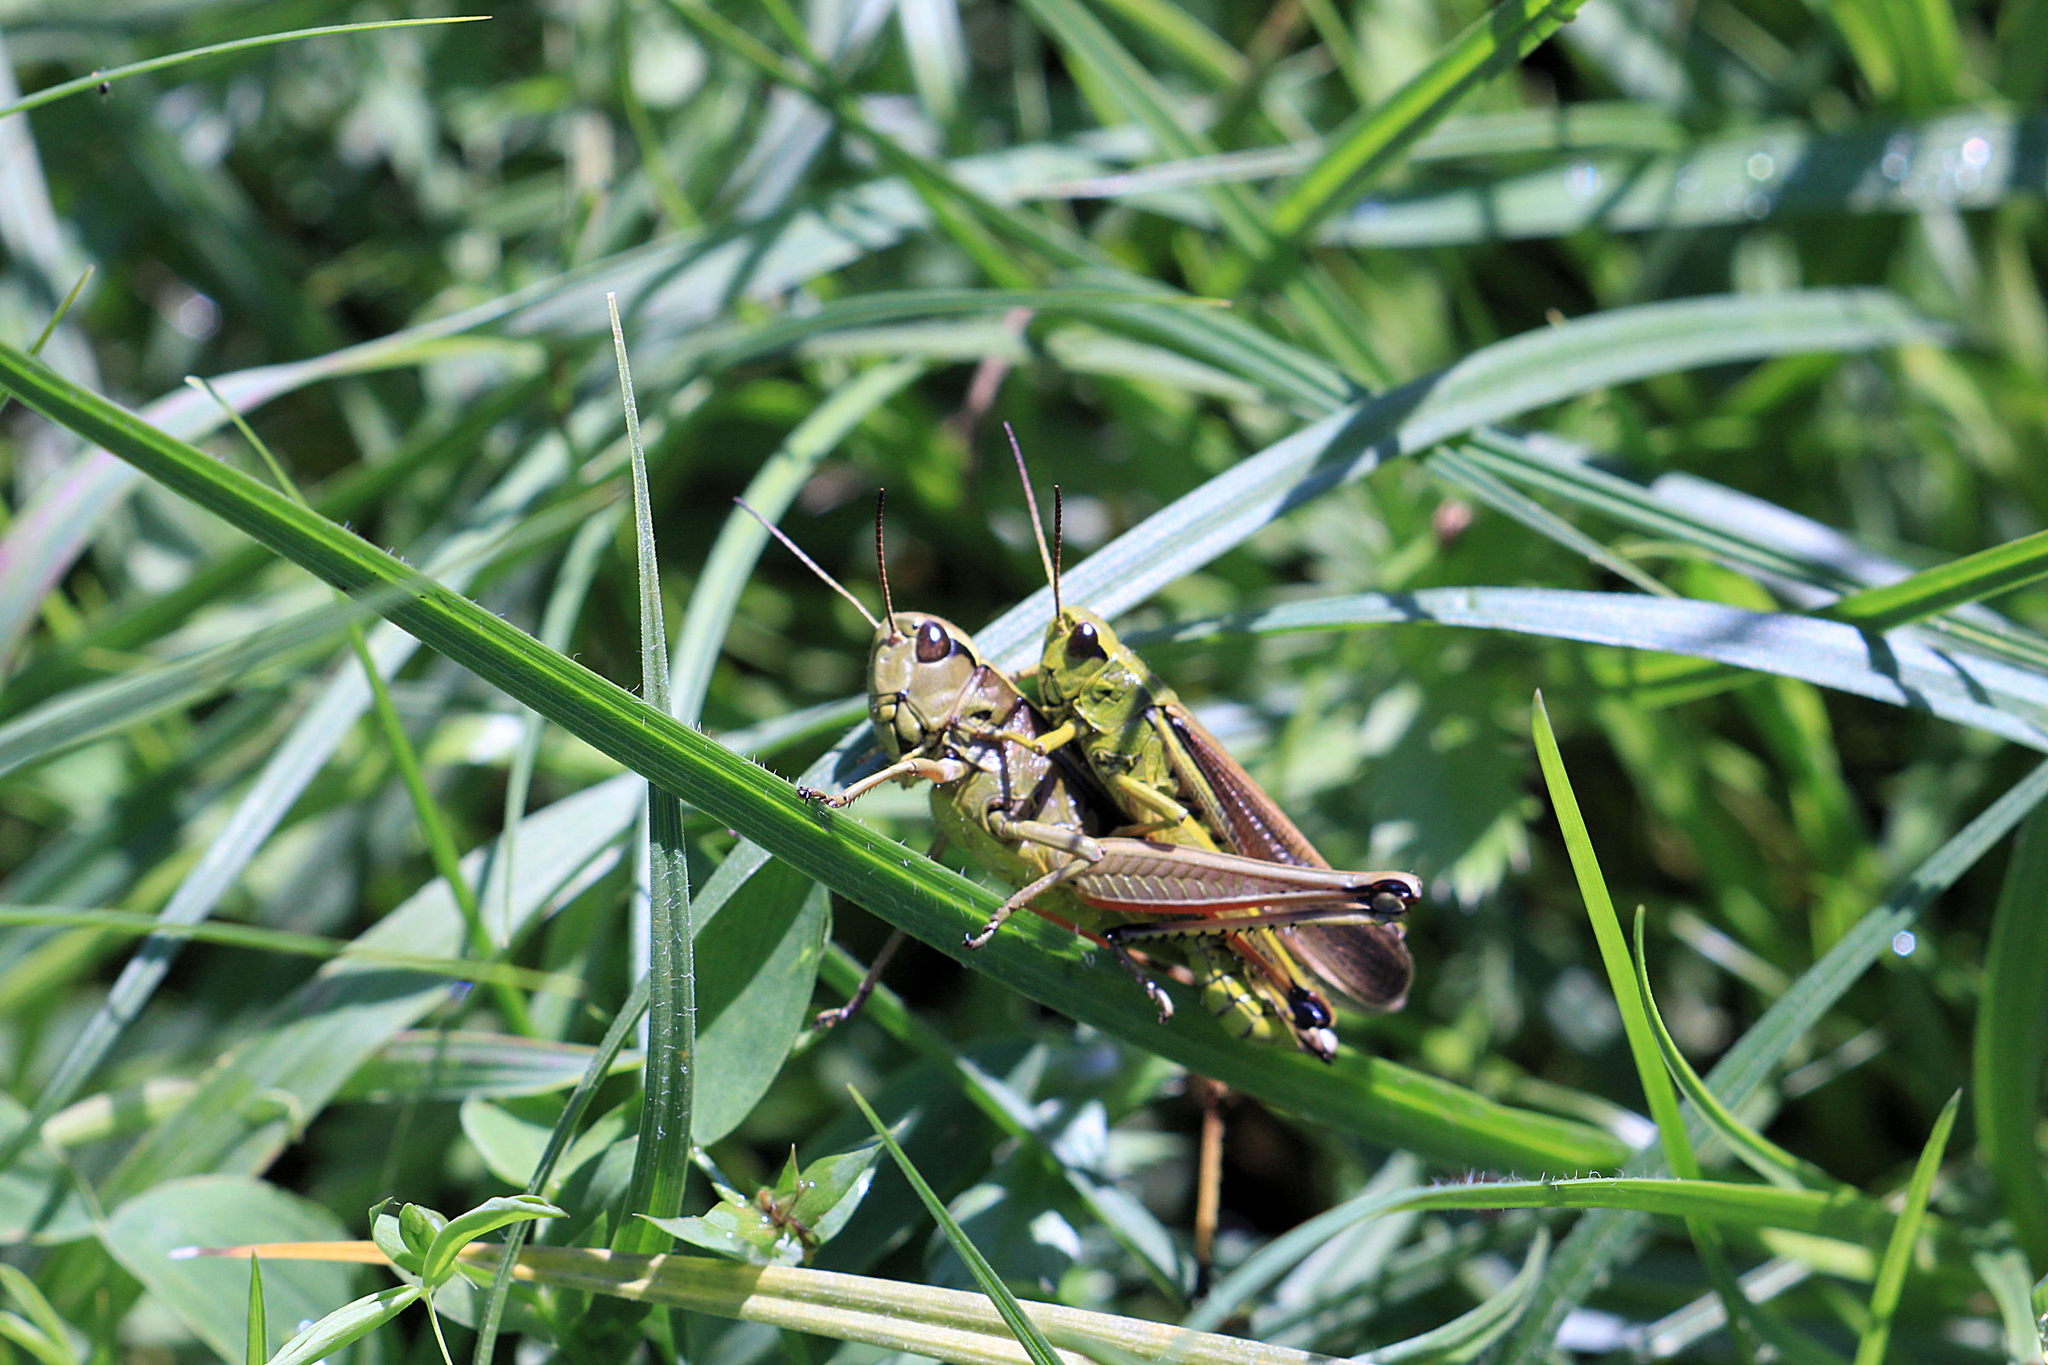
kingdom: Animalia
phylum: Arthropoda
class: Insecta
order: Orthoptera
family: Acrididae
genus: Stethophyma
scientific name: Stethophyma grossum
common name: Large marsh grasshopper
